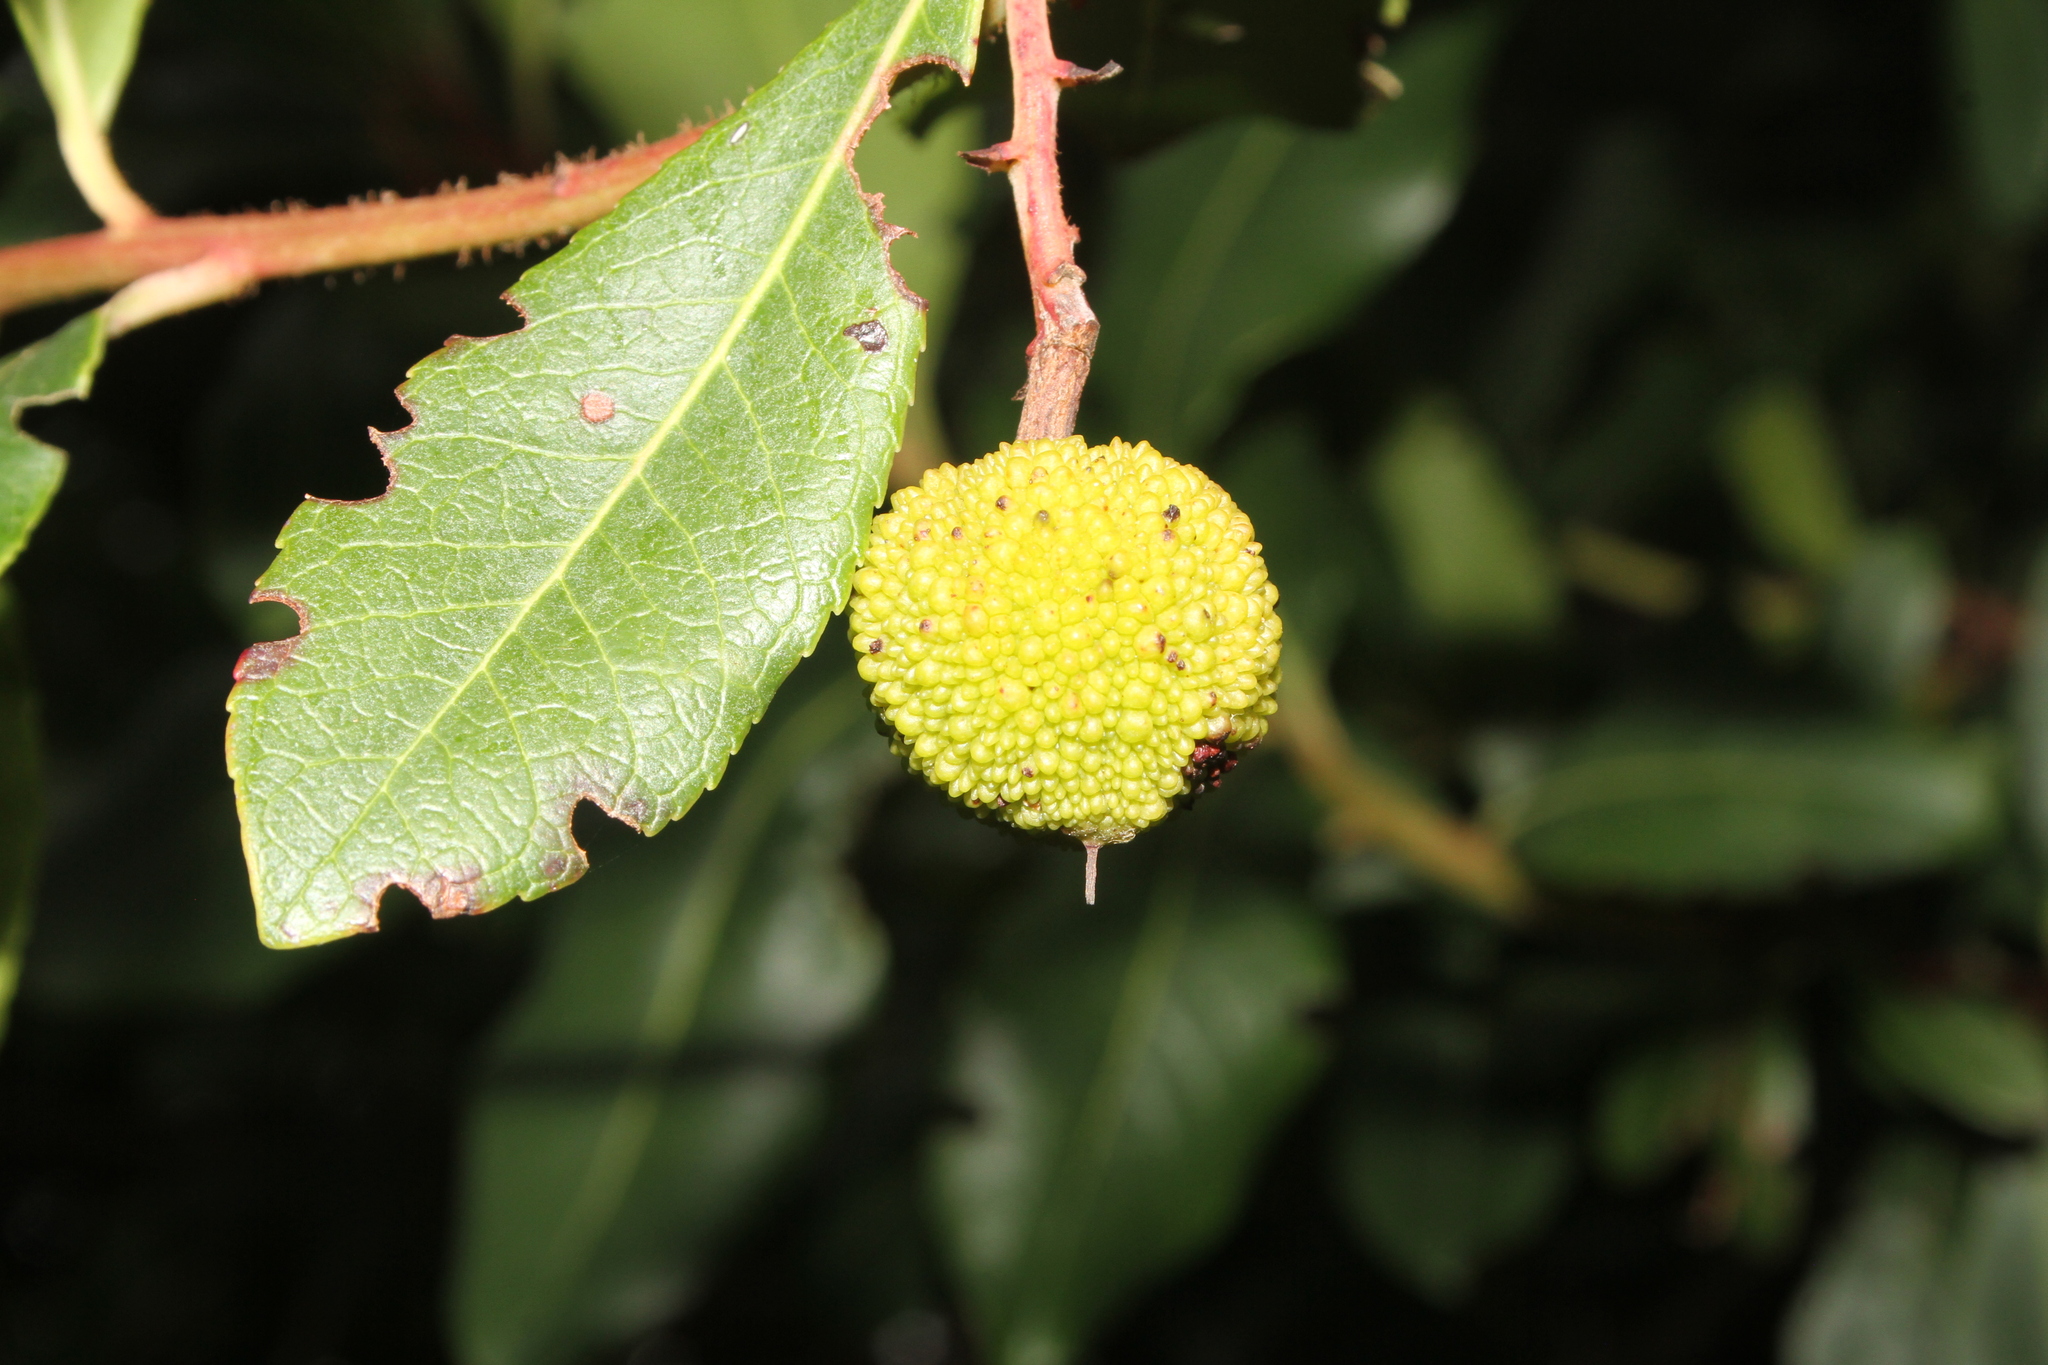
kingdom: Plantae
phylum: Tracheophyta
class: Magnoliopsida
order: Ericales
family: Ericaceae
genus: Arbutus
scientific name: Arbutus unedo
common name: Strawberry-tree
